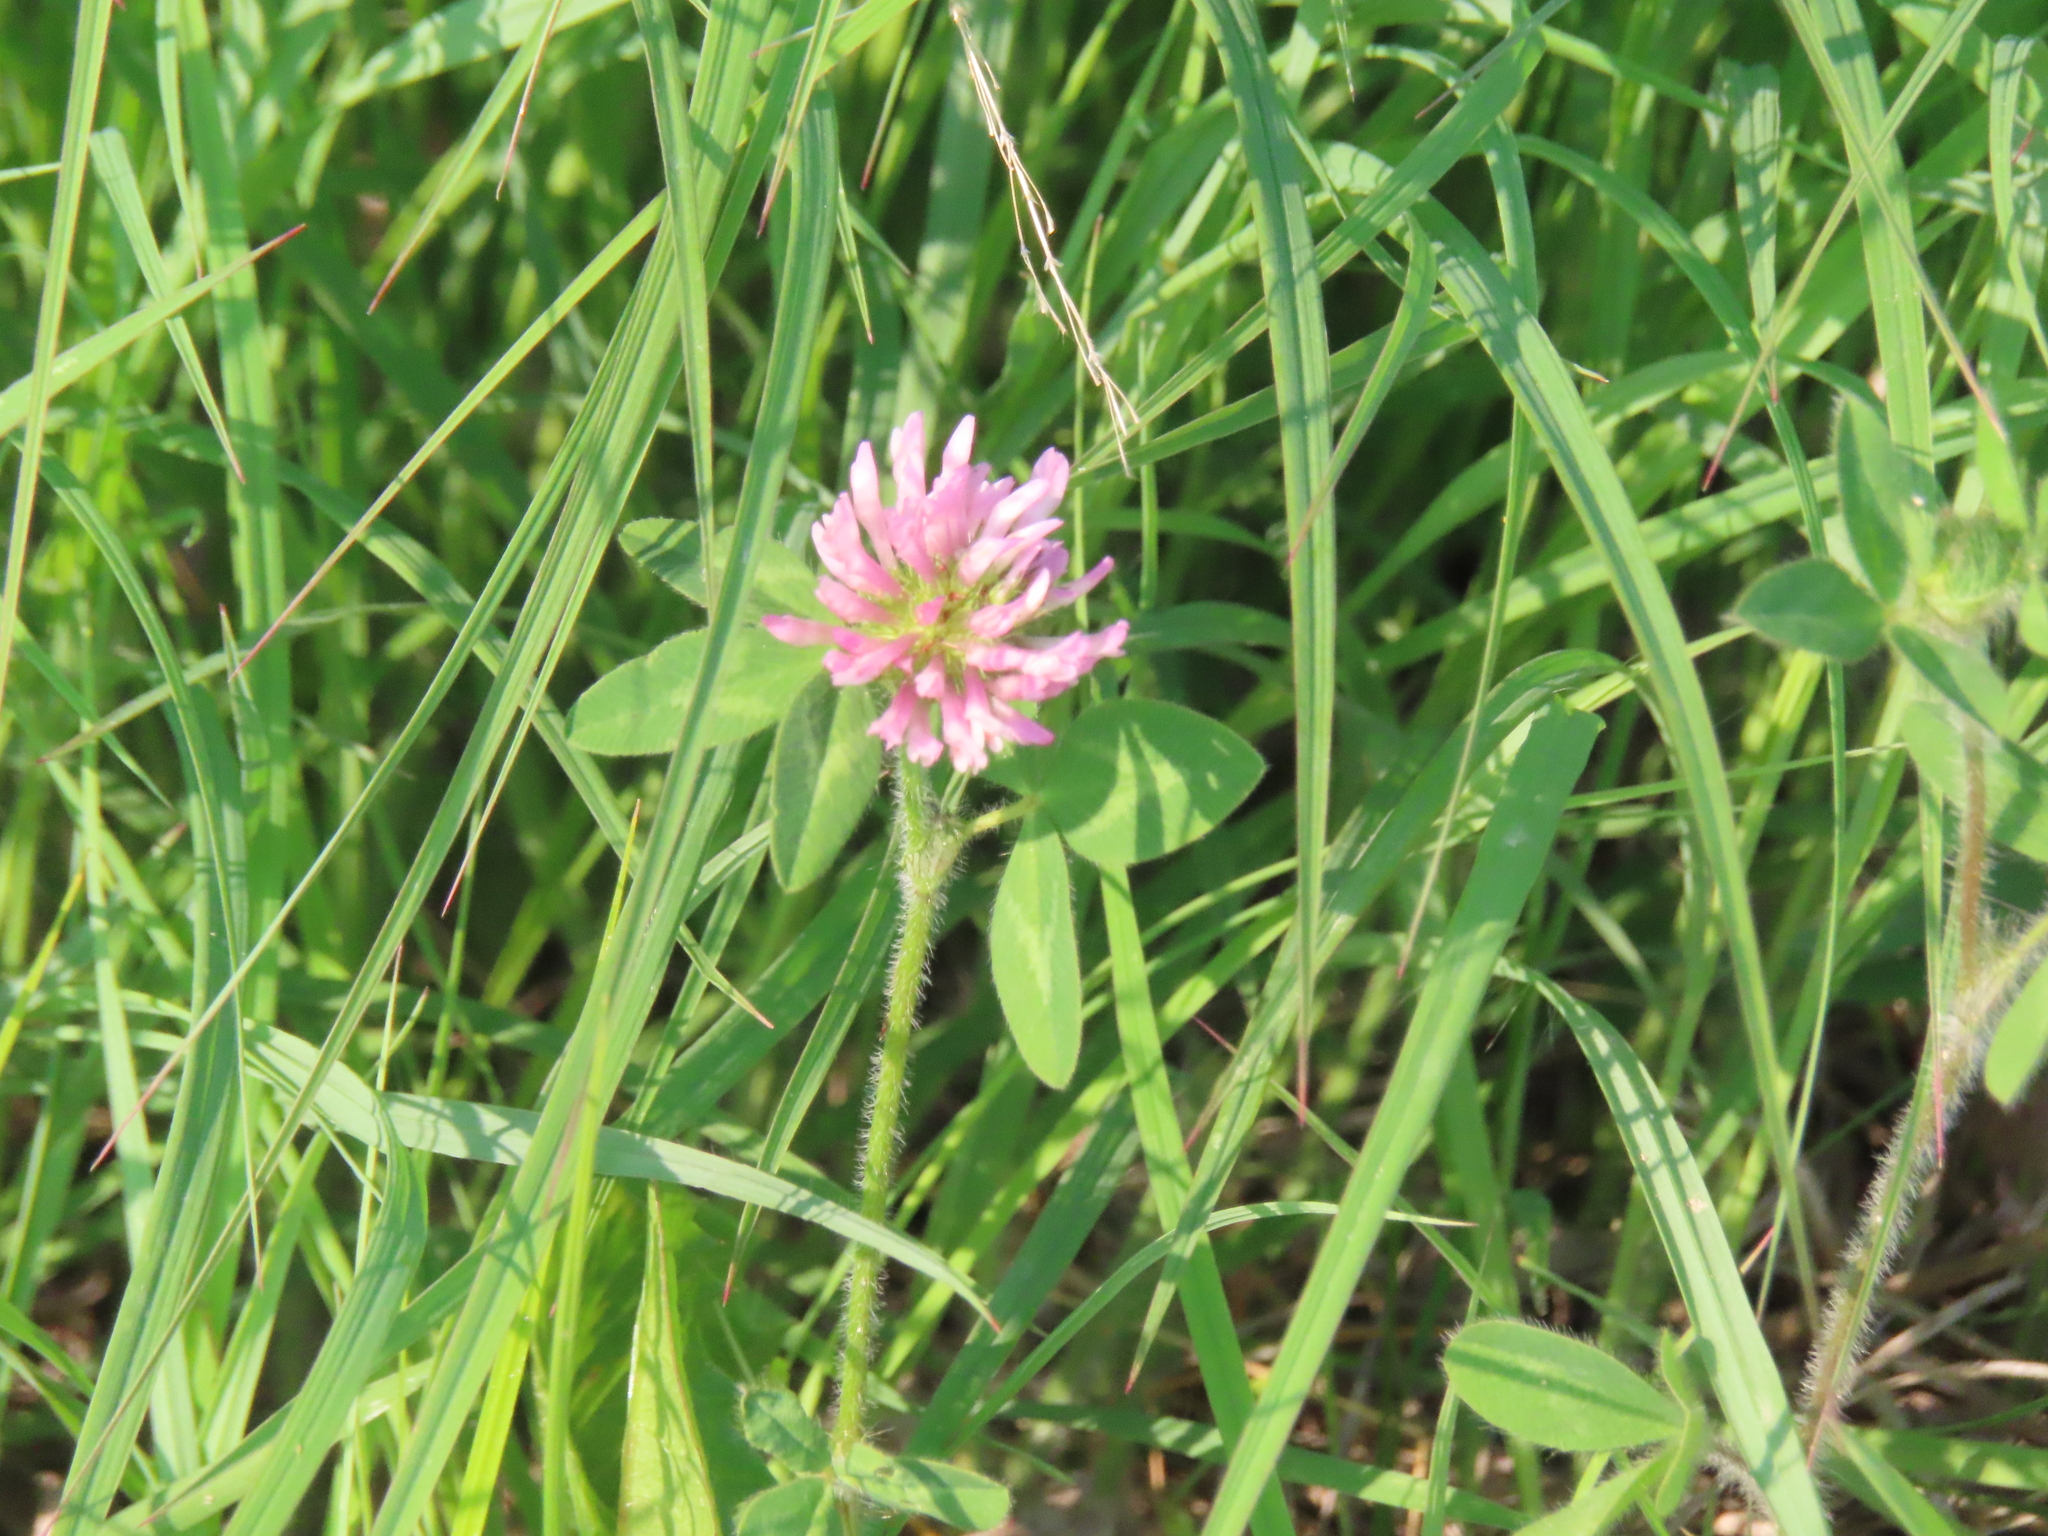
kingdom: Plantae
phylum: Tracheophyta
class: Magnoliopsida
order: Fabales
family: Fabaceae
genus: Trifolium
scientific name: Trifolium pratense
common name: Red clover
